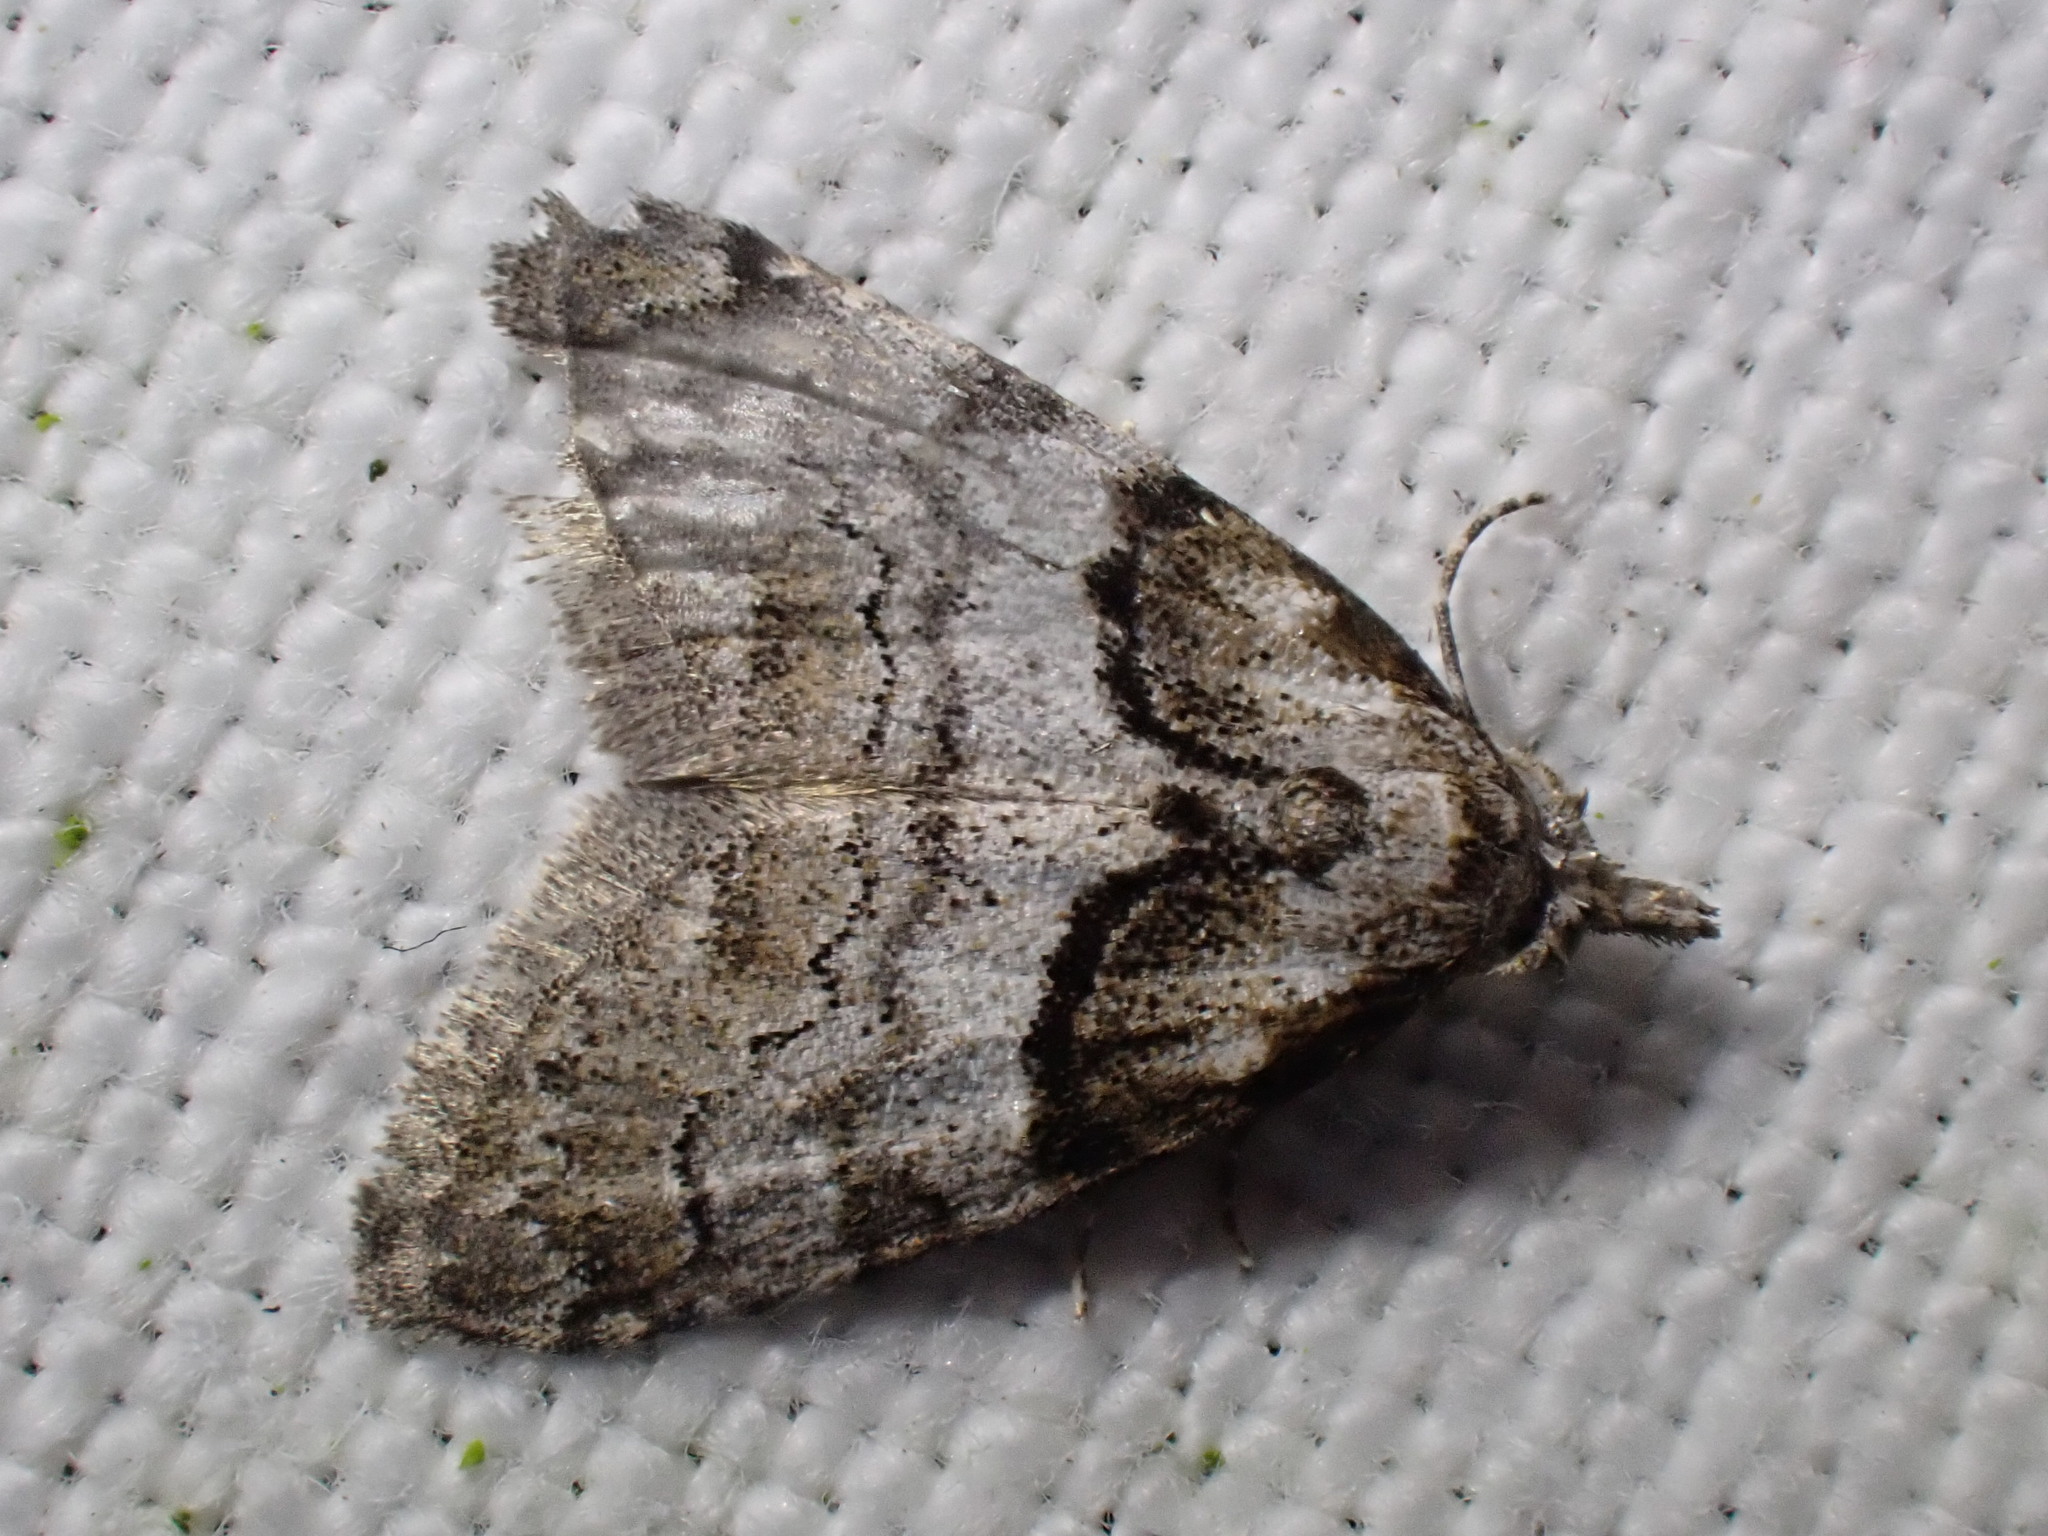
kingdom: Animalia
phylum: Arthropoda
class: Insecta
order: Lepidoptera
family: Nolidae
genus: Nola
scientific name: Nola cucullatella
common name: Short-cloaked moth
